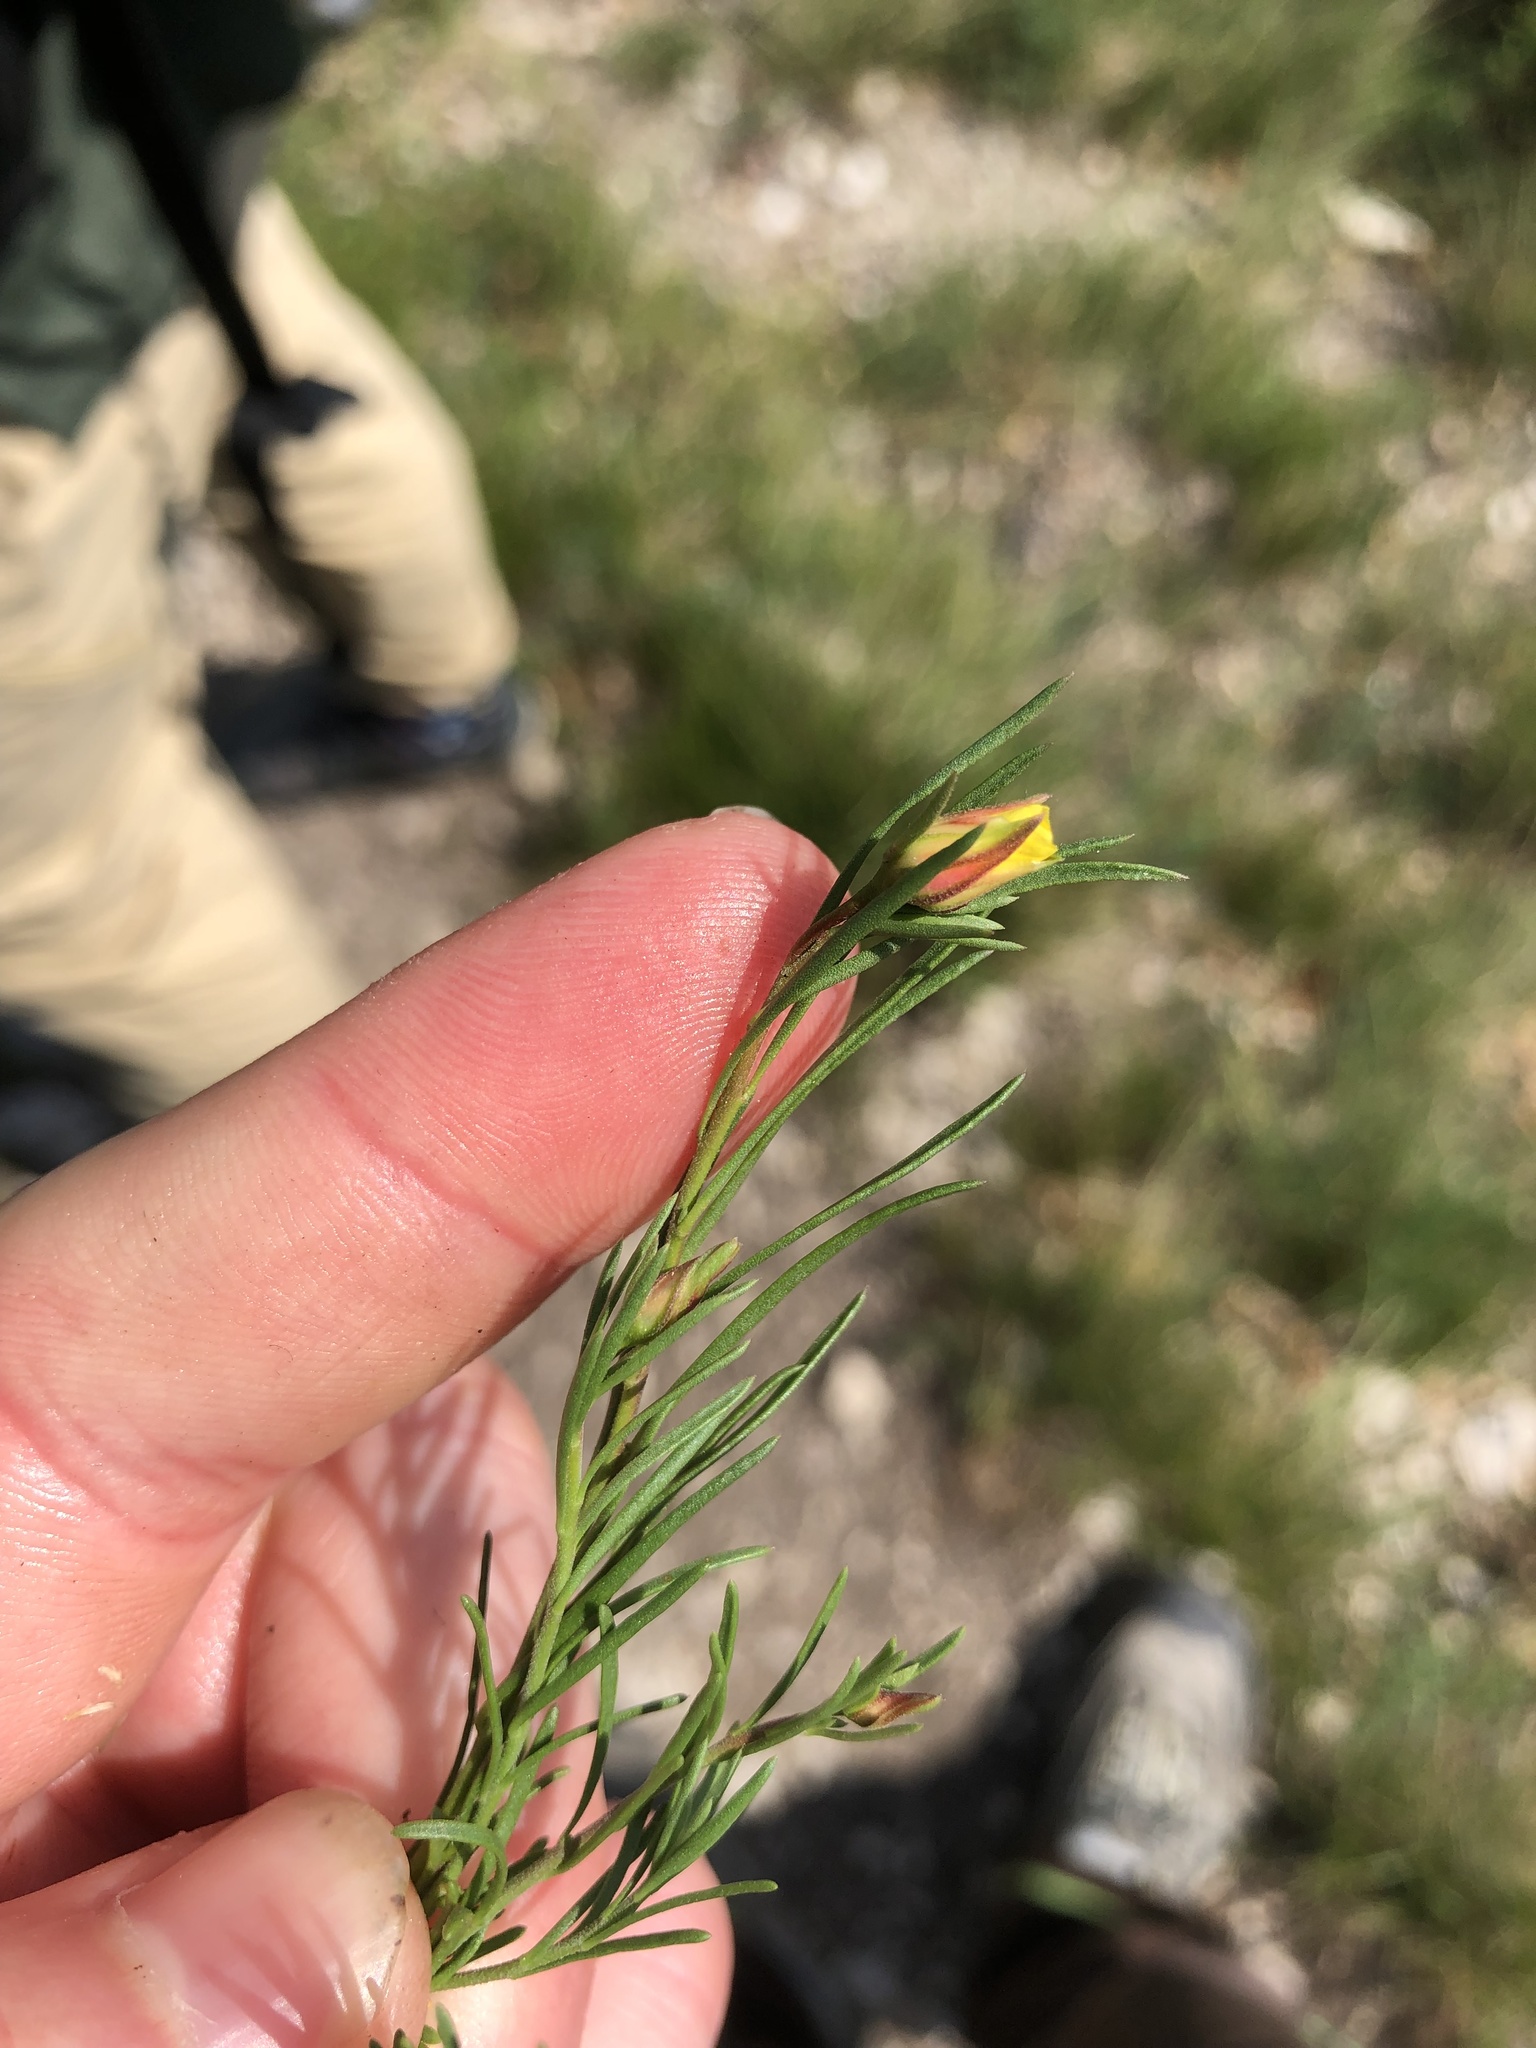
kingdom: Plantae
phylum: Tracheophyta
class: Magnoliopsida
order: Malvales
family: Cistaceae
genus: Fumana
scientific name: Fumana procumbens
